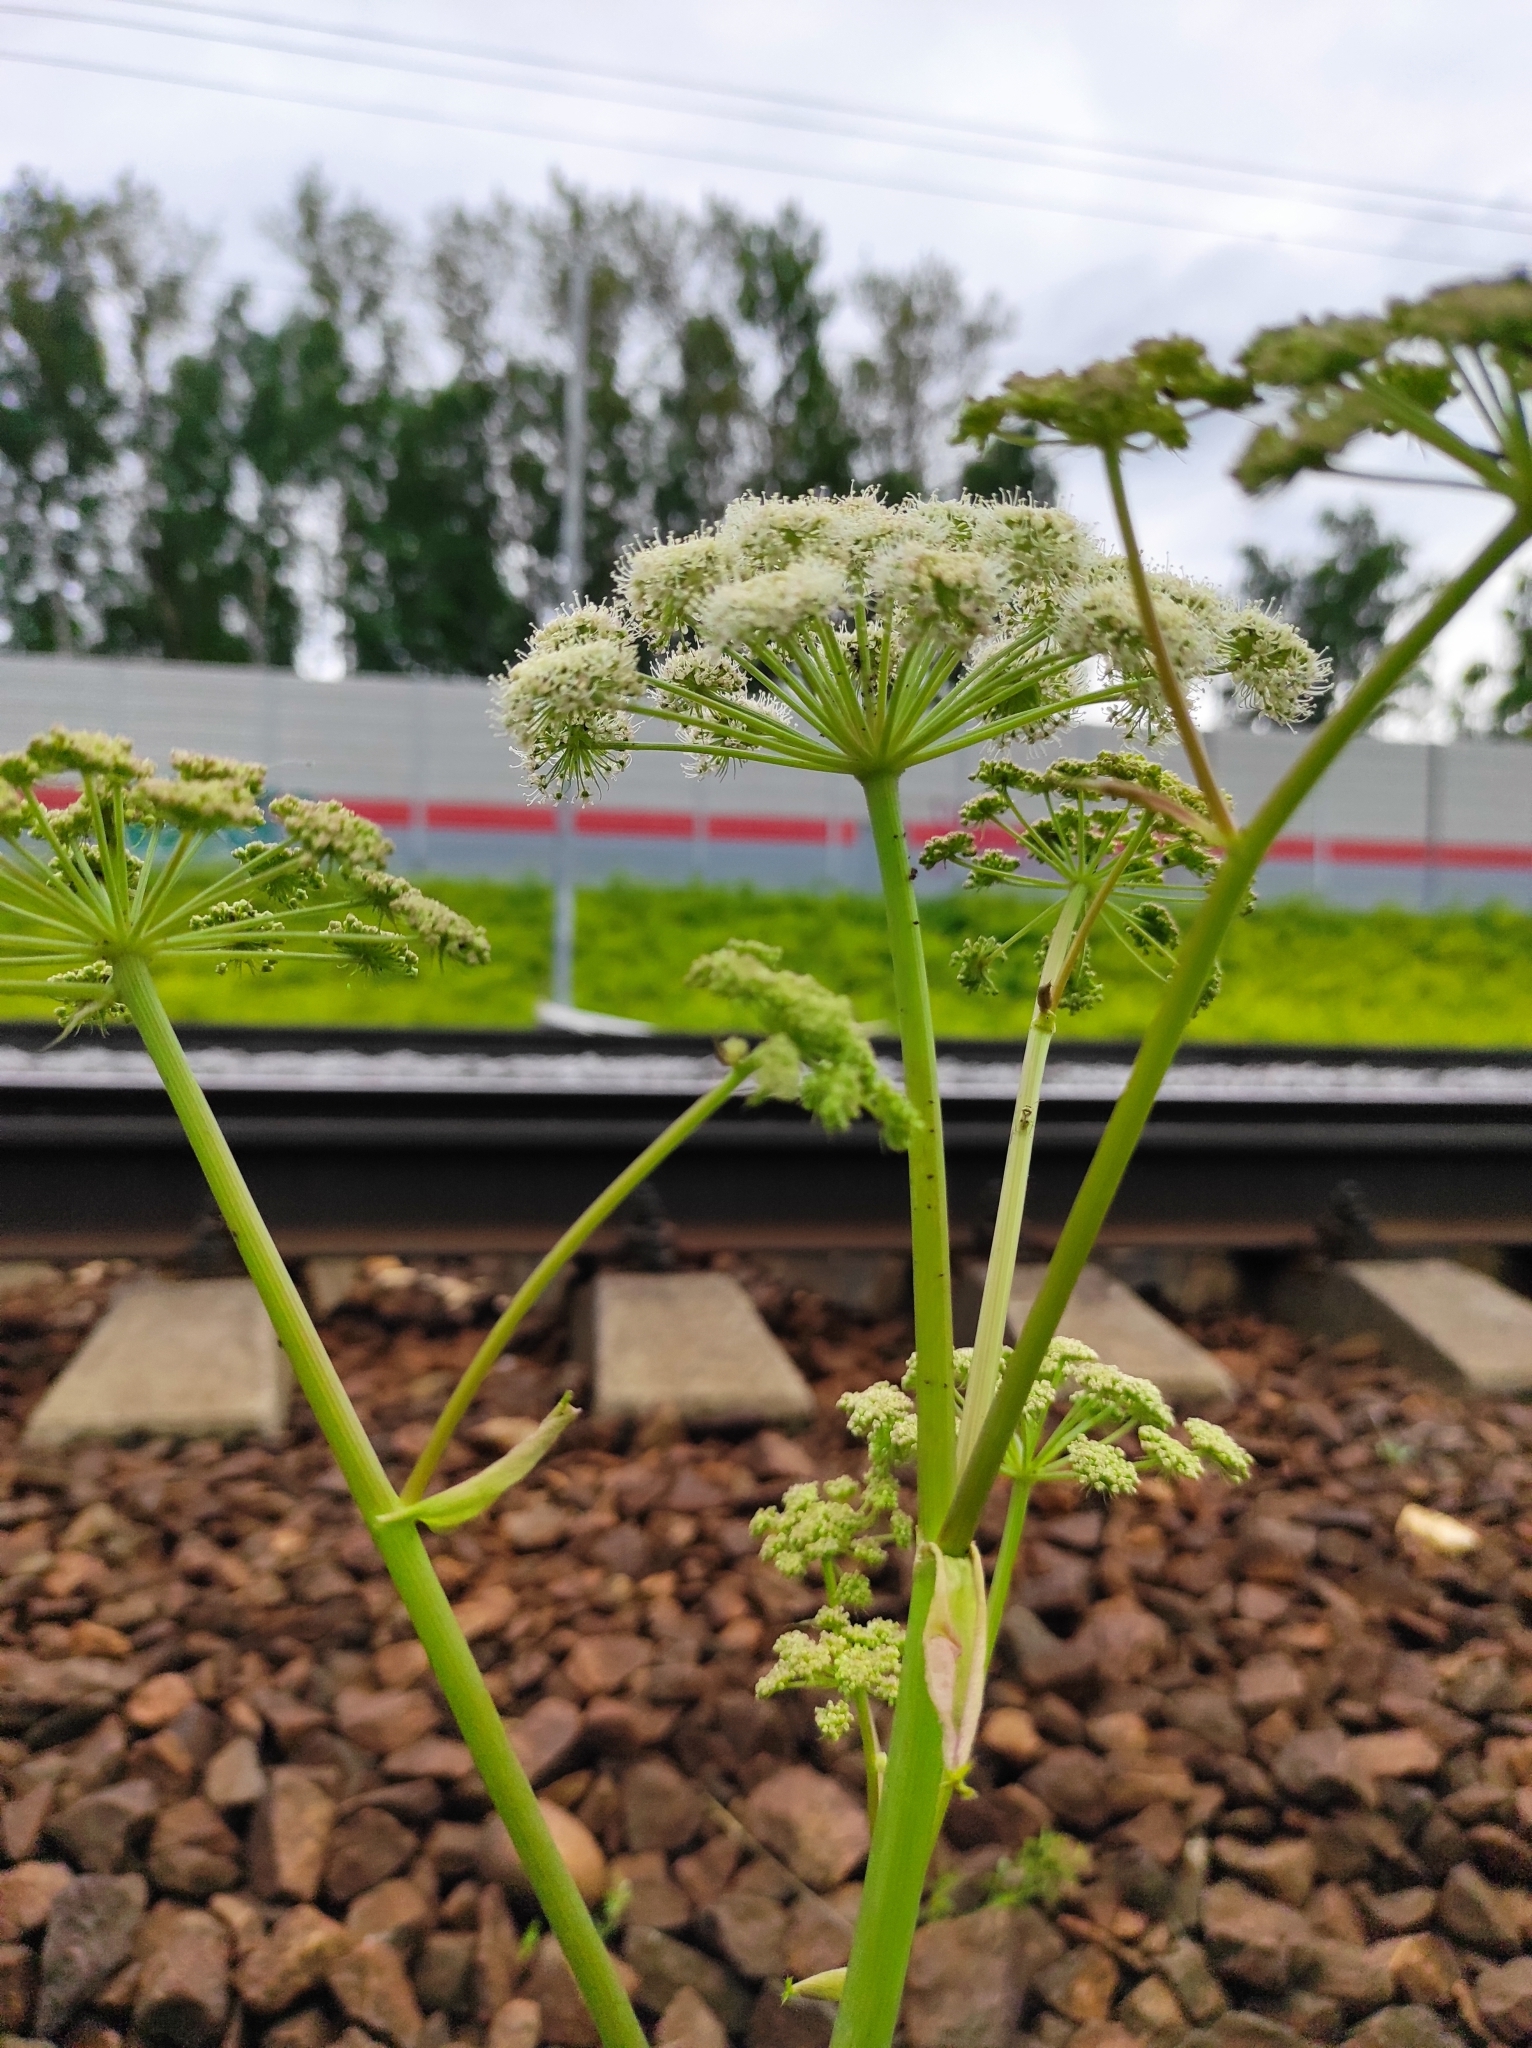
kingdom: Plantae
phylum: Tracheophyta
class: Magnoliopsida
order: Apiales
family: Apiaceae
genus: Angelica
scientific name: Angelica sylvestris
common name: Wild angelica
